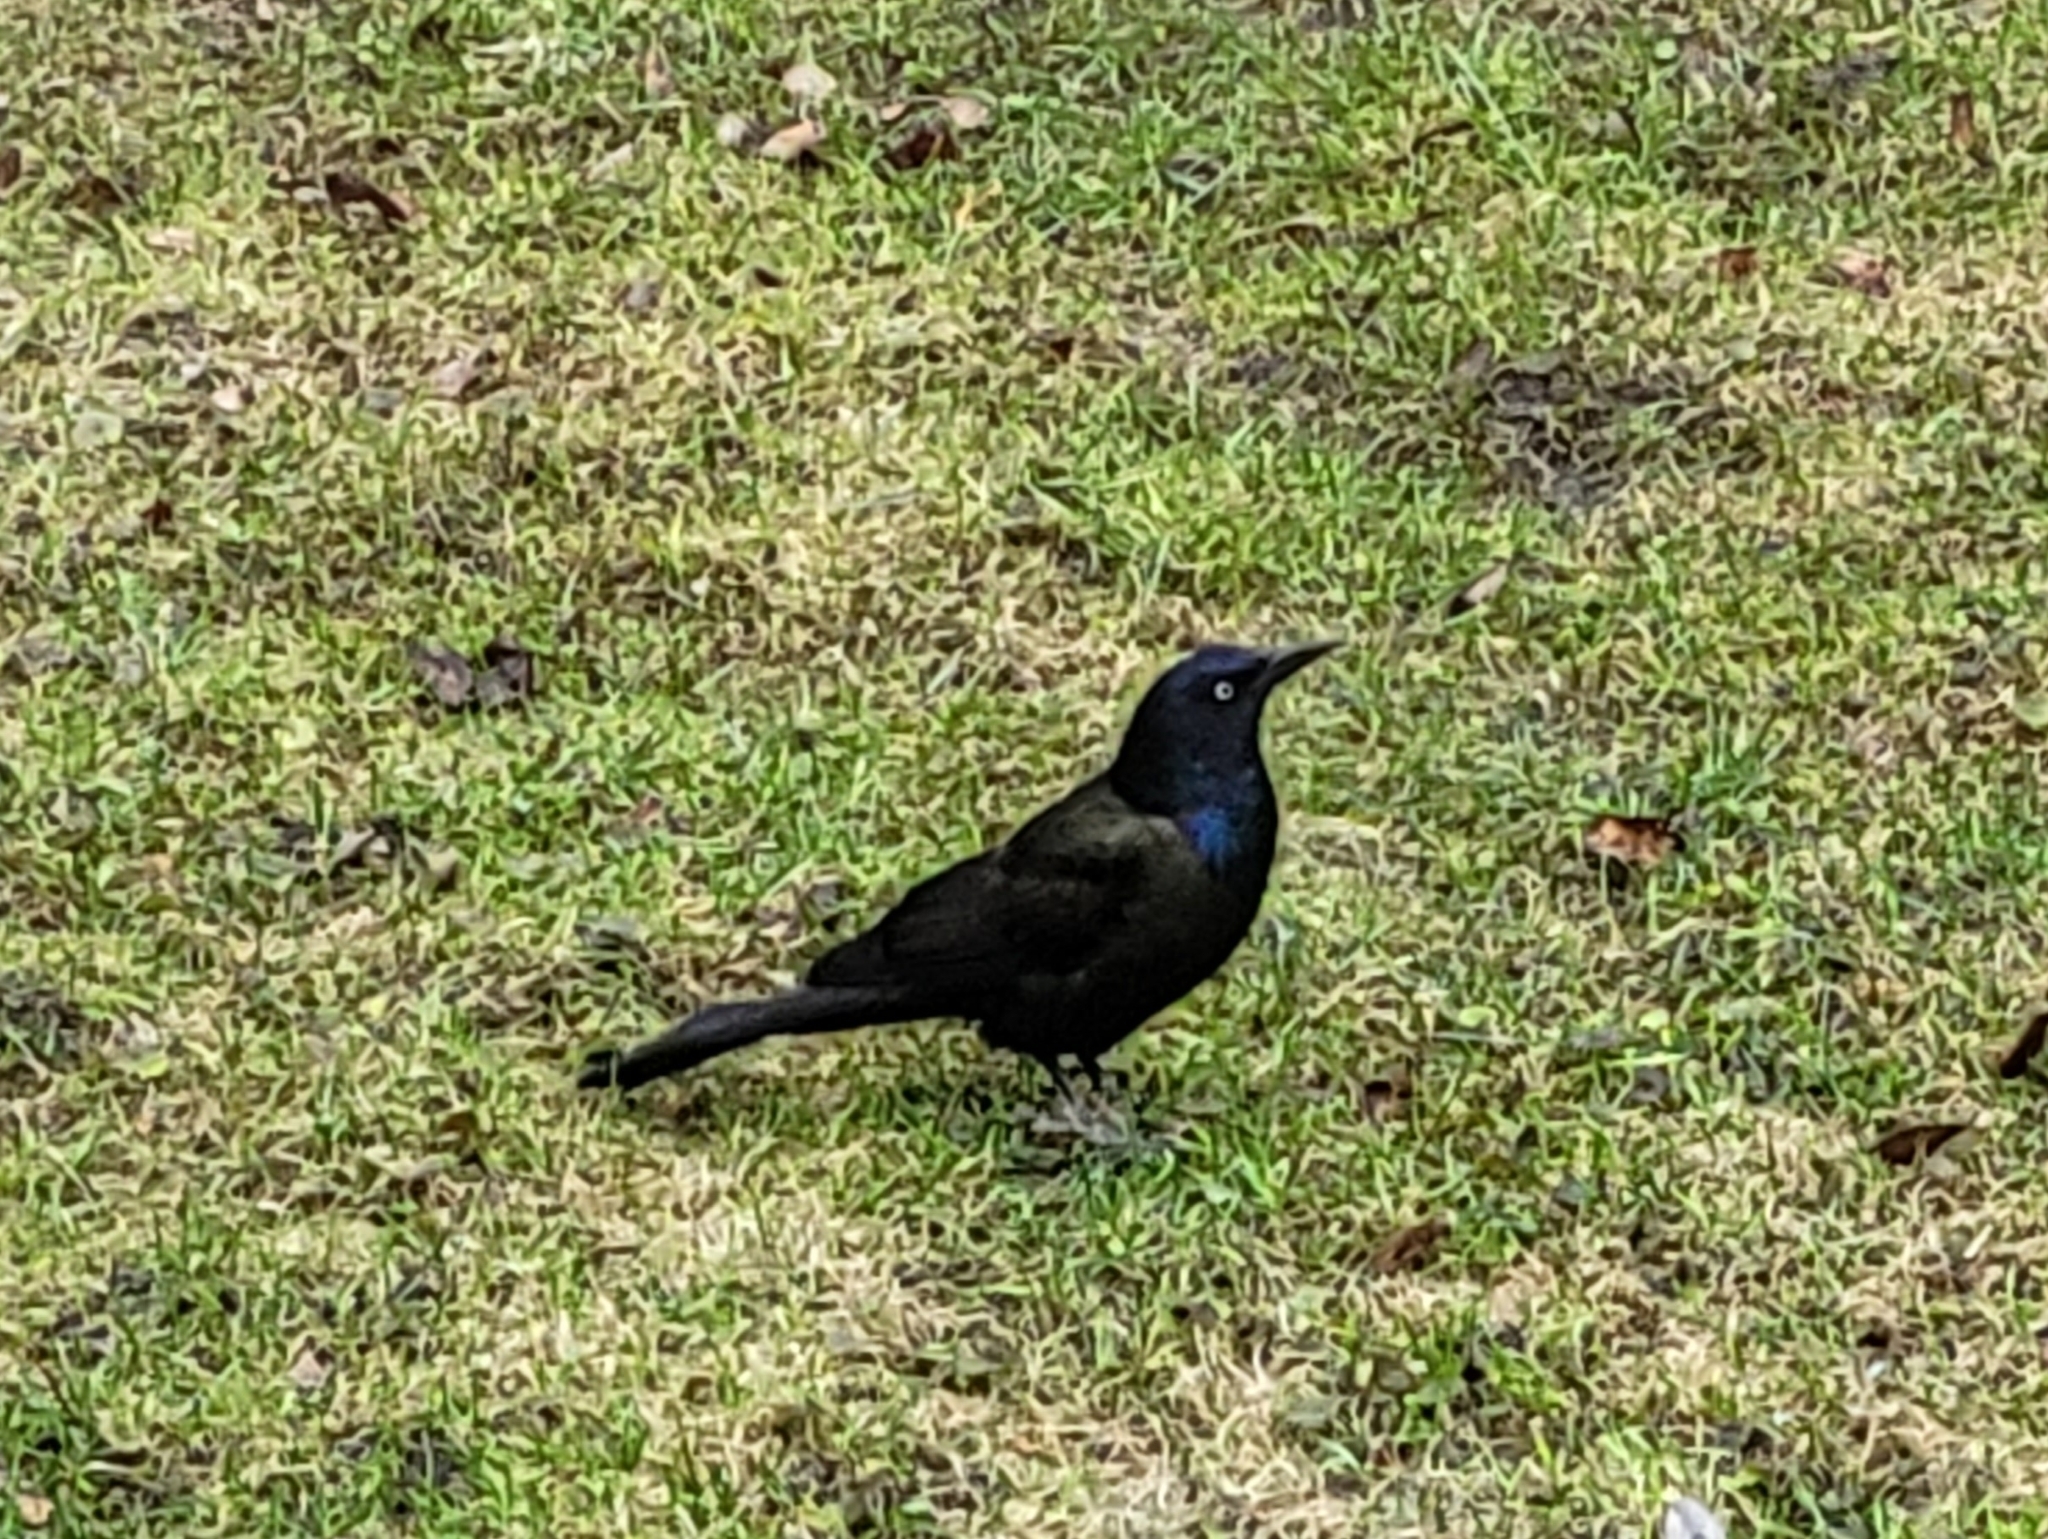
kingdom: Animalia
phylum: Chordata
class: Aves
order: Passeriformes
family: Icteridae
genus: Quiscalus
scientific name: Quiscalus quiscula
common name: Common grackle
